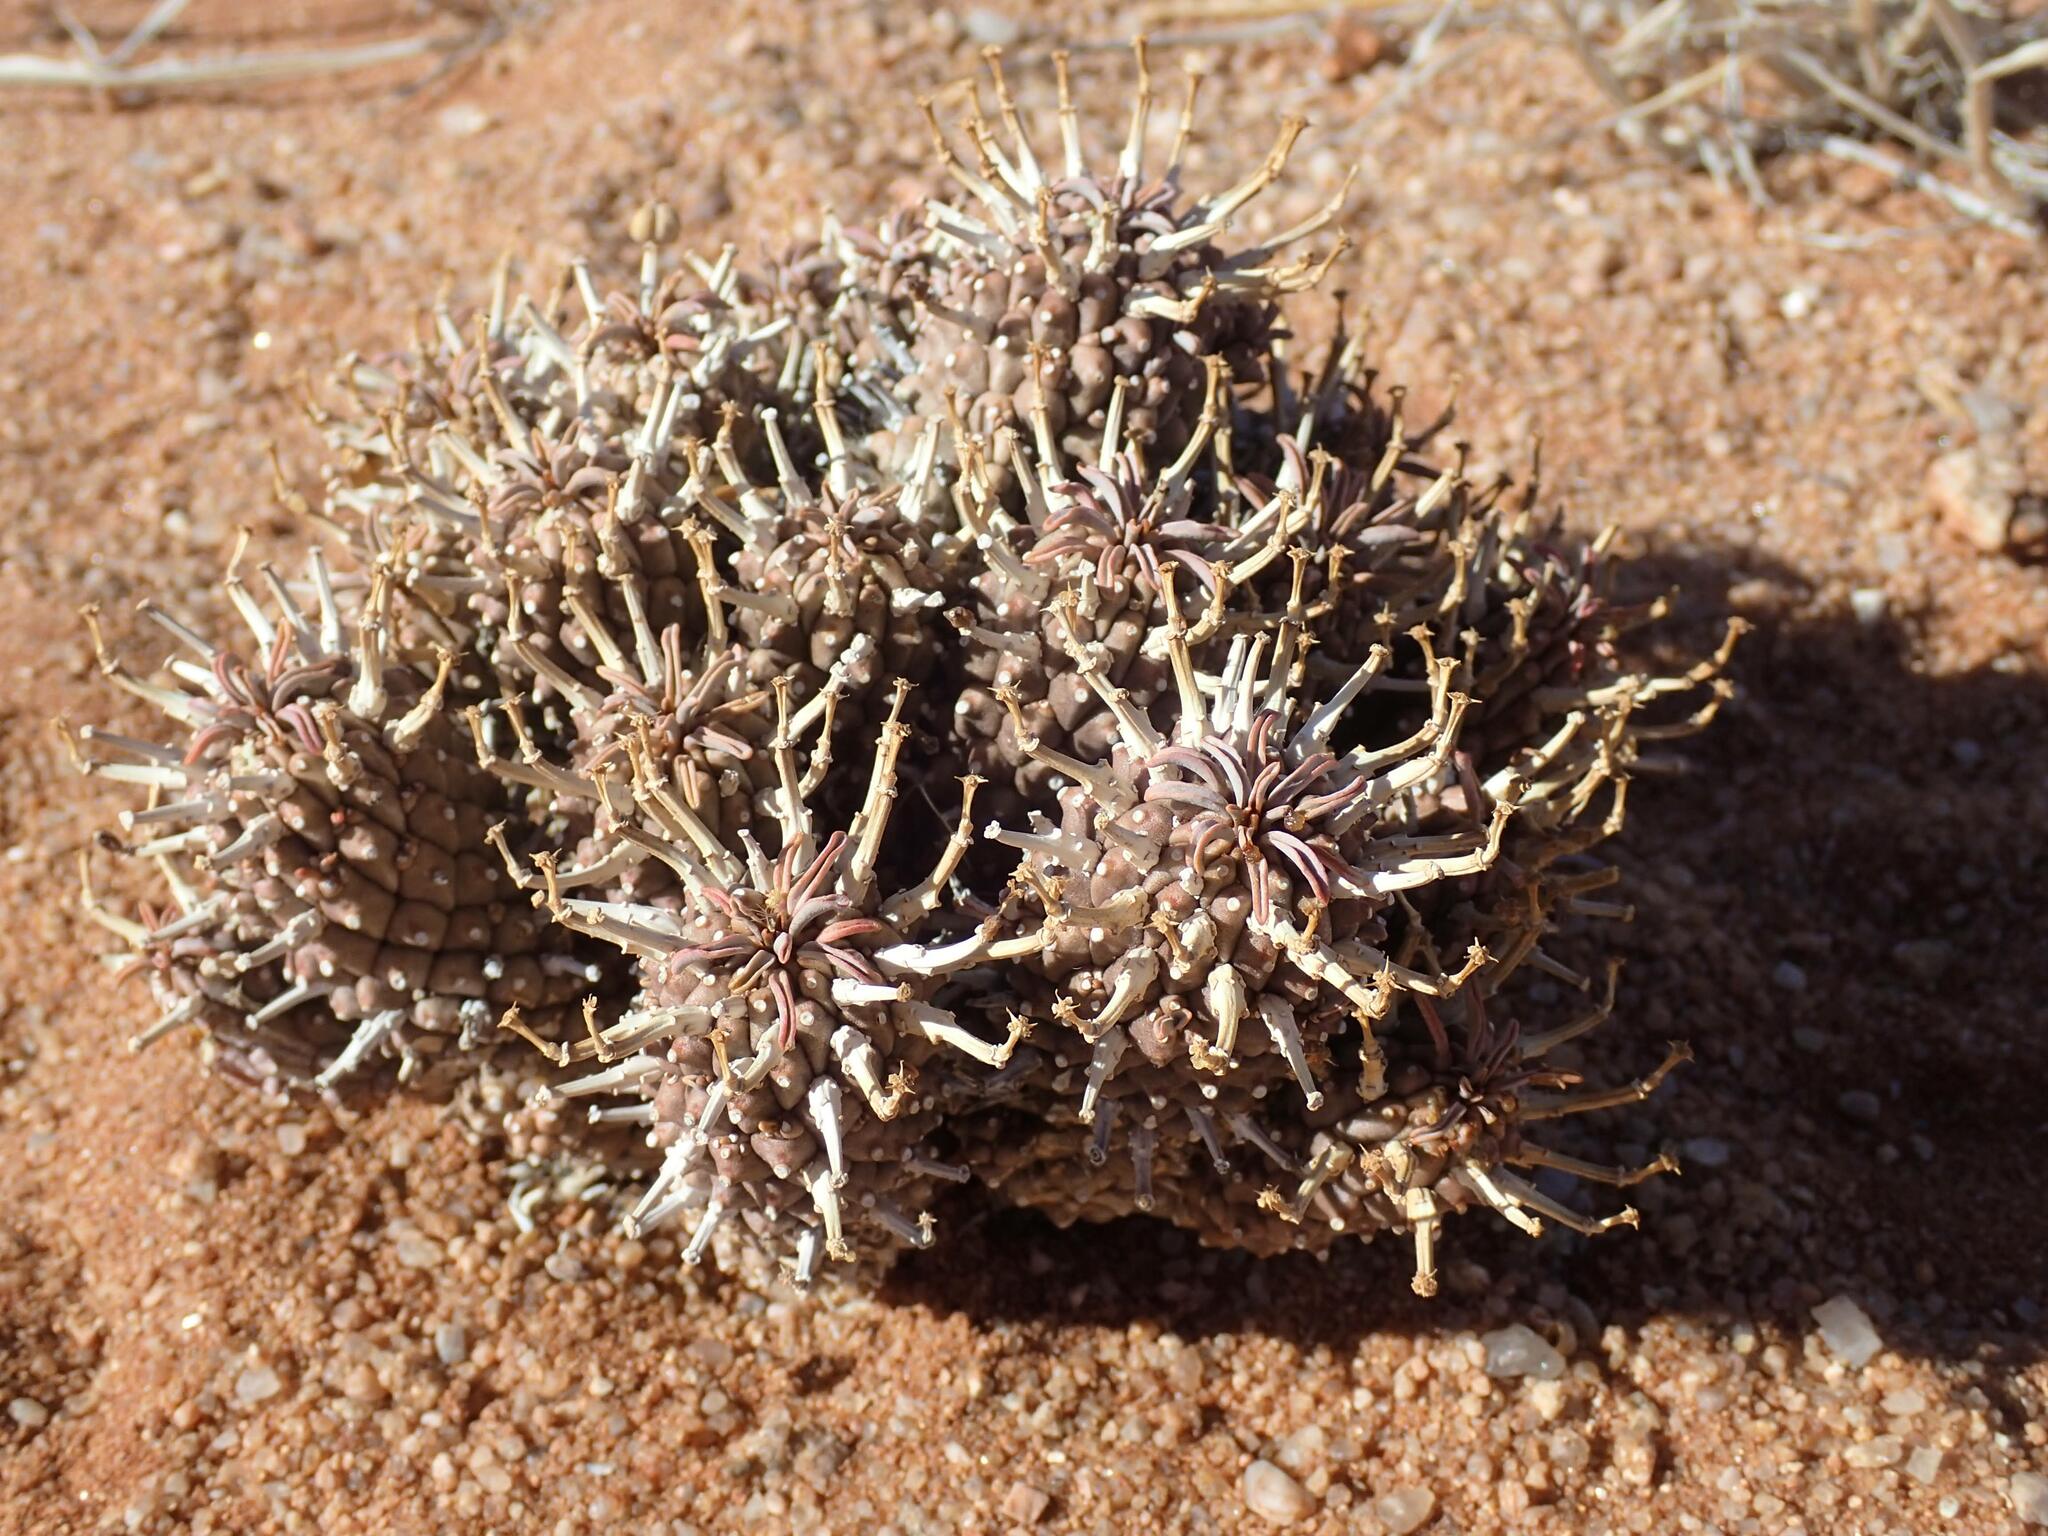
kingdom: Plantae
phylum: Tracheophyta
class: Magnoliopsida
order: Malpighiales
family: Euphorbiaceae
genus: Euphorbia
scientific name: Euphorbia braunsii
